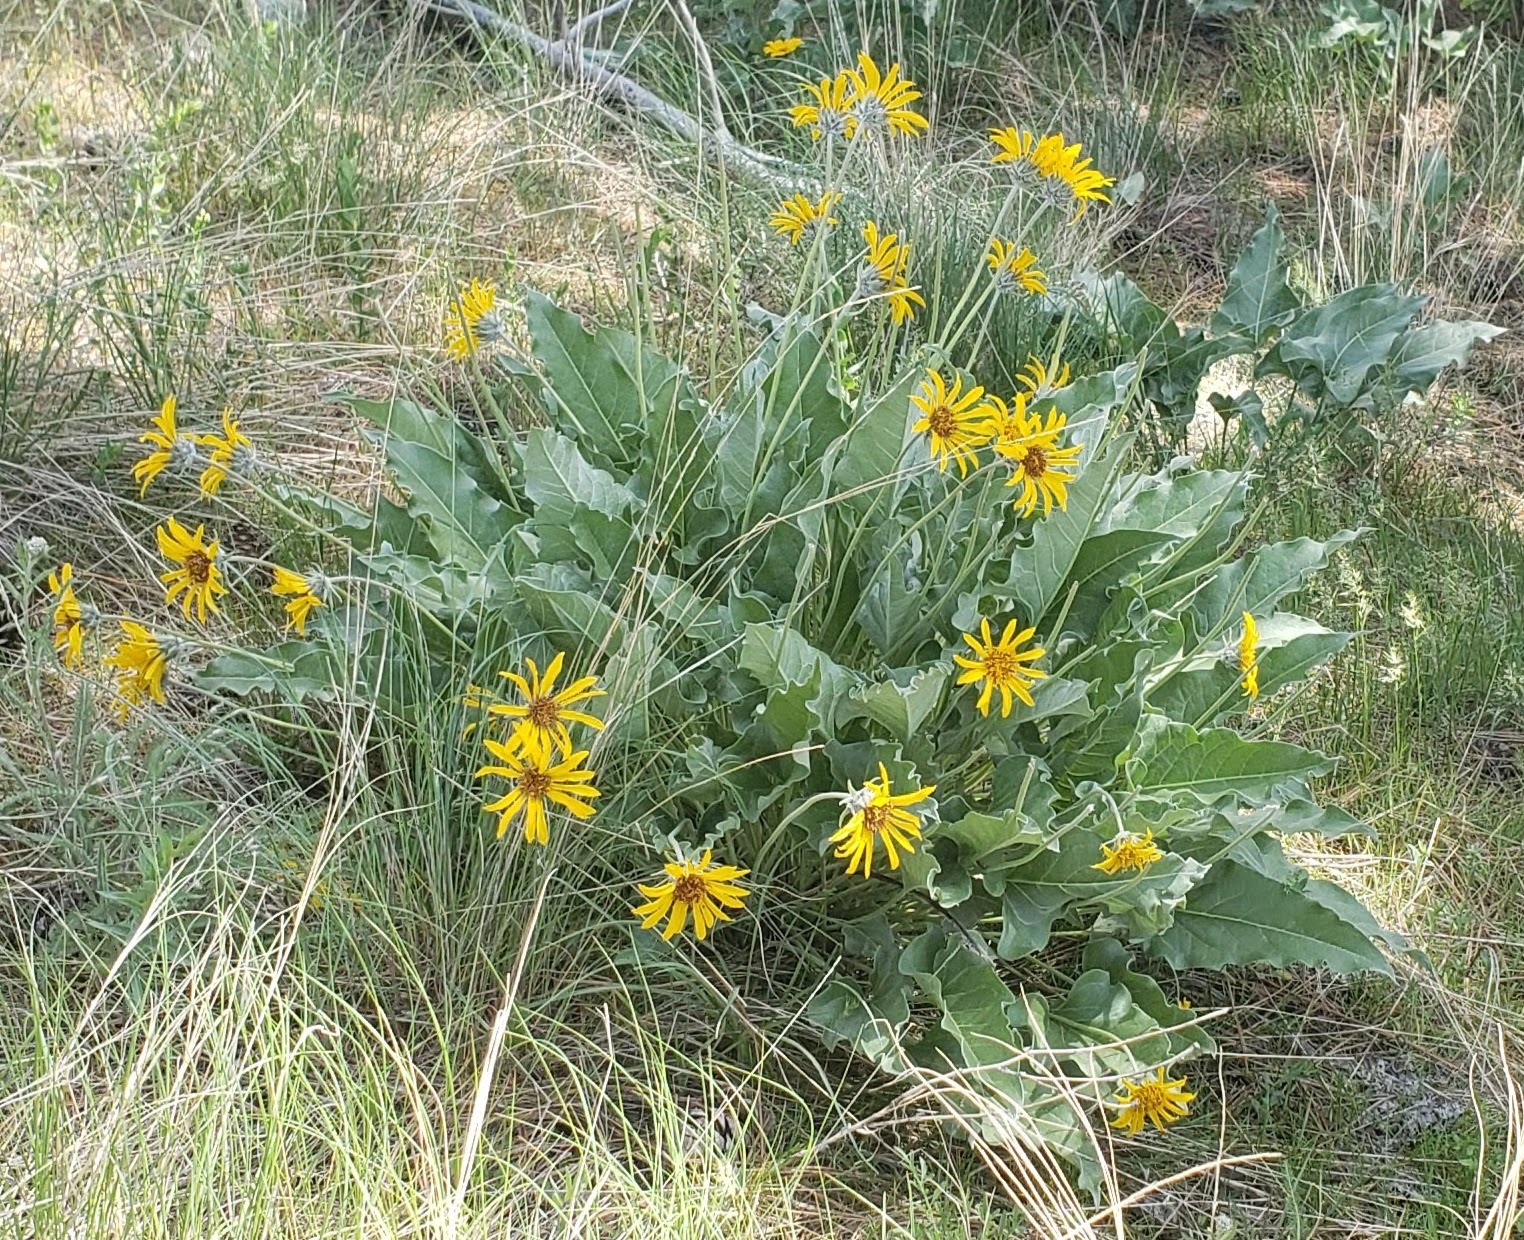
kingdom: Plantae
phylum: Tracheophyta
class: Magnoliopsida
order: Asterales
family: Asteraceae
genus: Wyethia
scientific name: Wyethia sagittata
